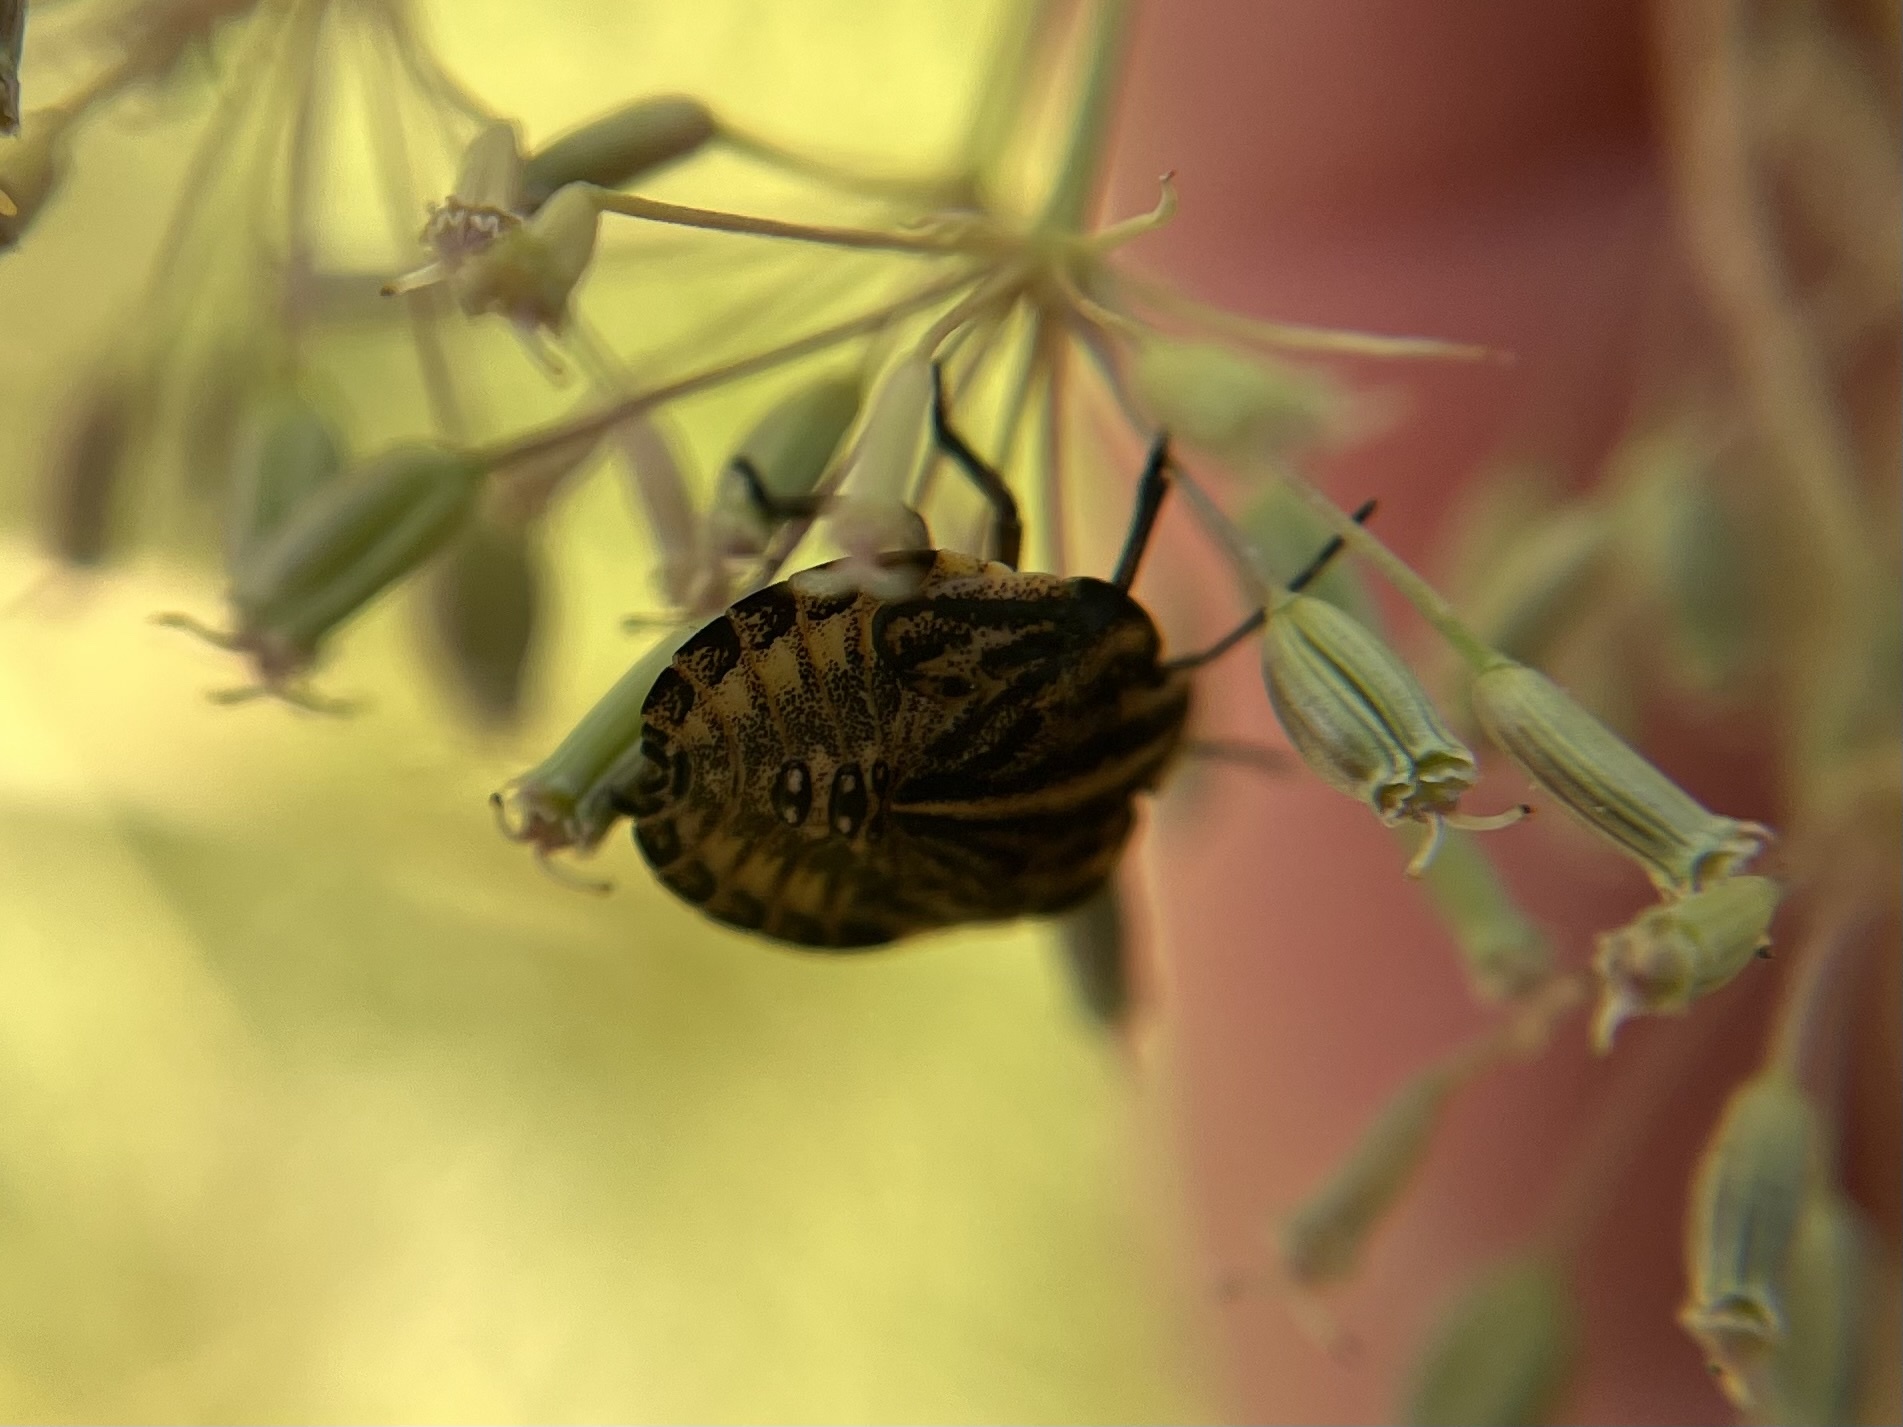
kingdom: Animalia
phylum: Arthropoda
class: Insecta
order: Hemiptera
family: Pentatomidae
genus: Graphosoma
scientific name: Graphosoma italicum
